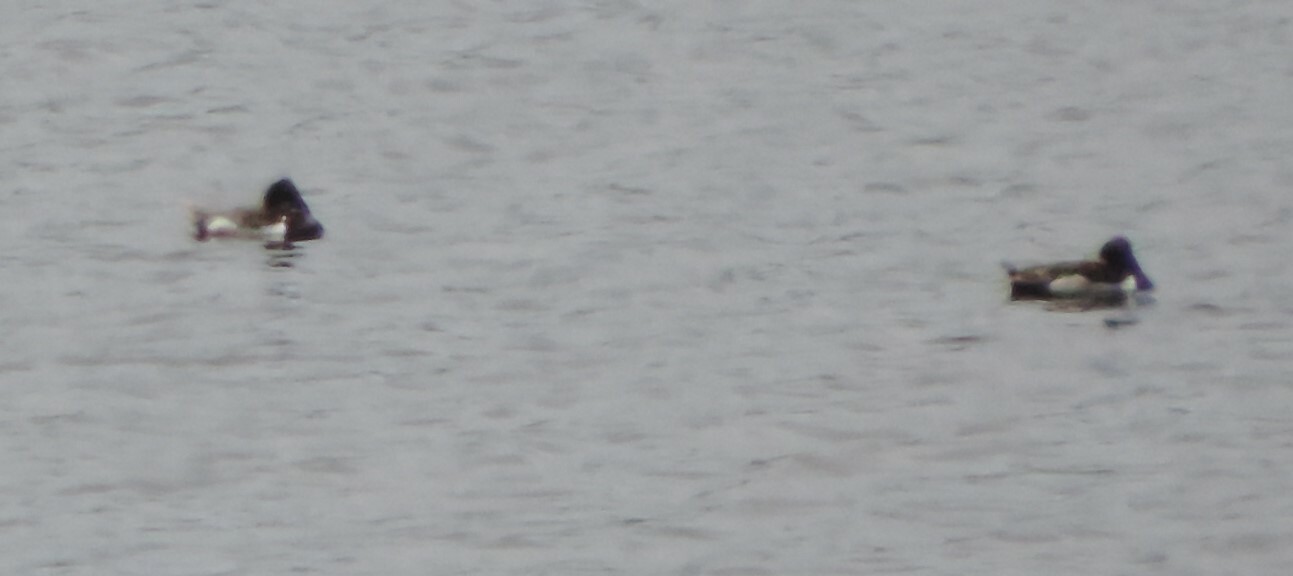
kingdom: Animalia
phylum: Chordata
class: Aves
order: Anseriformes
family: Anatidae
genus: Aythya
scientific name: Aythya collaris
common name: Ring-necked duck
